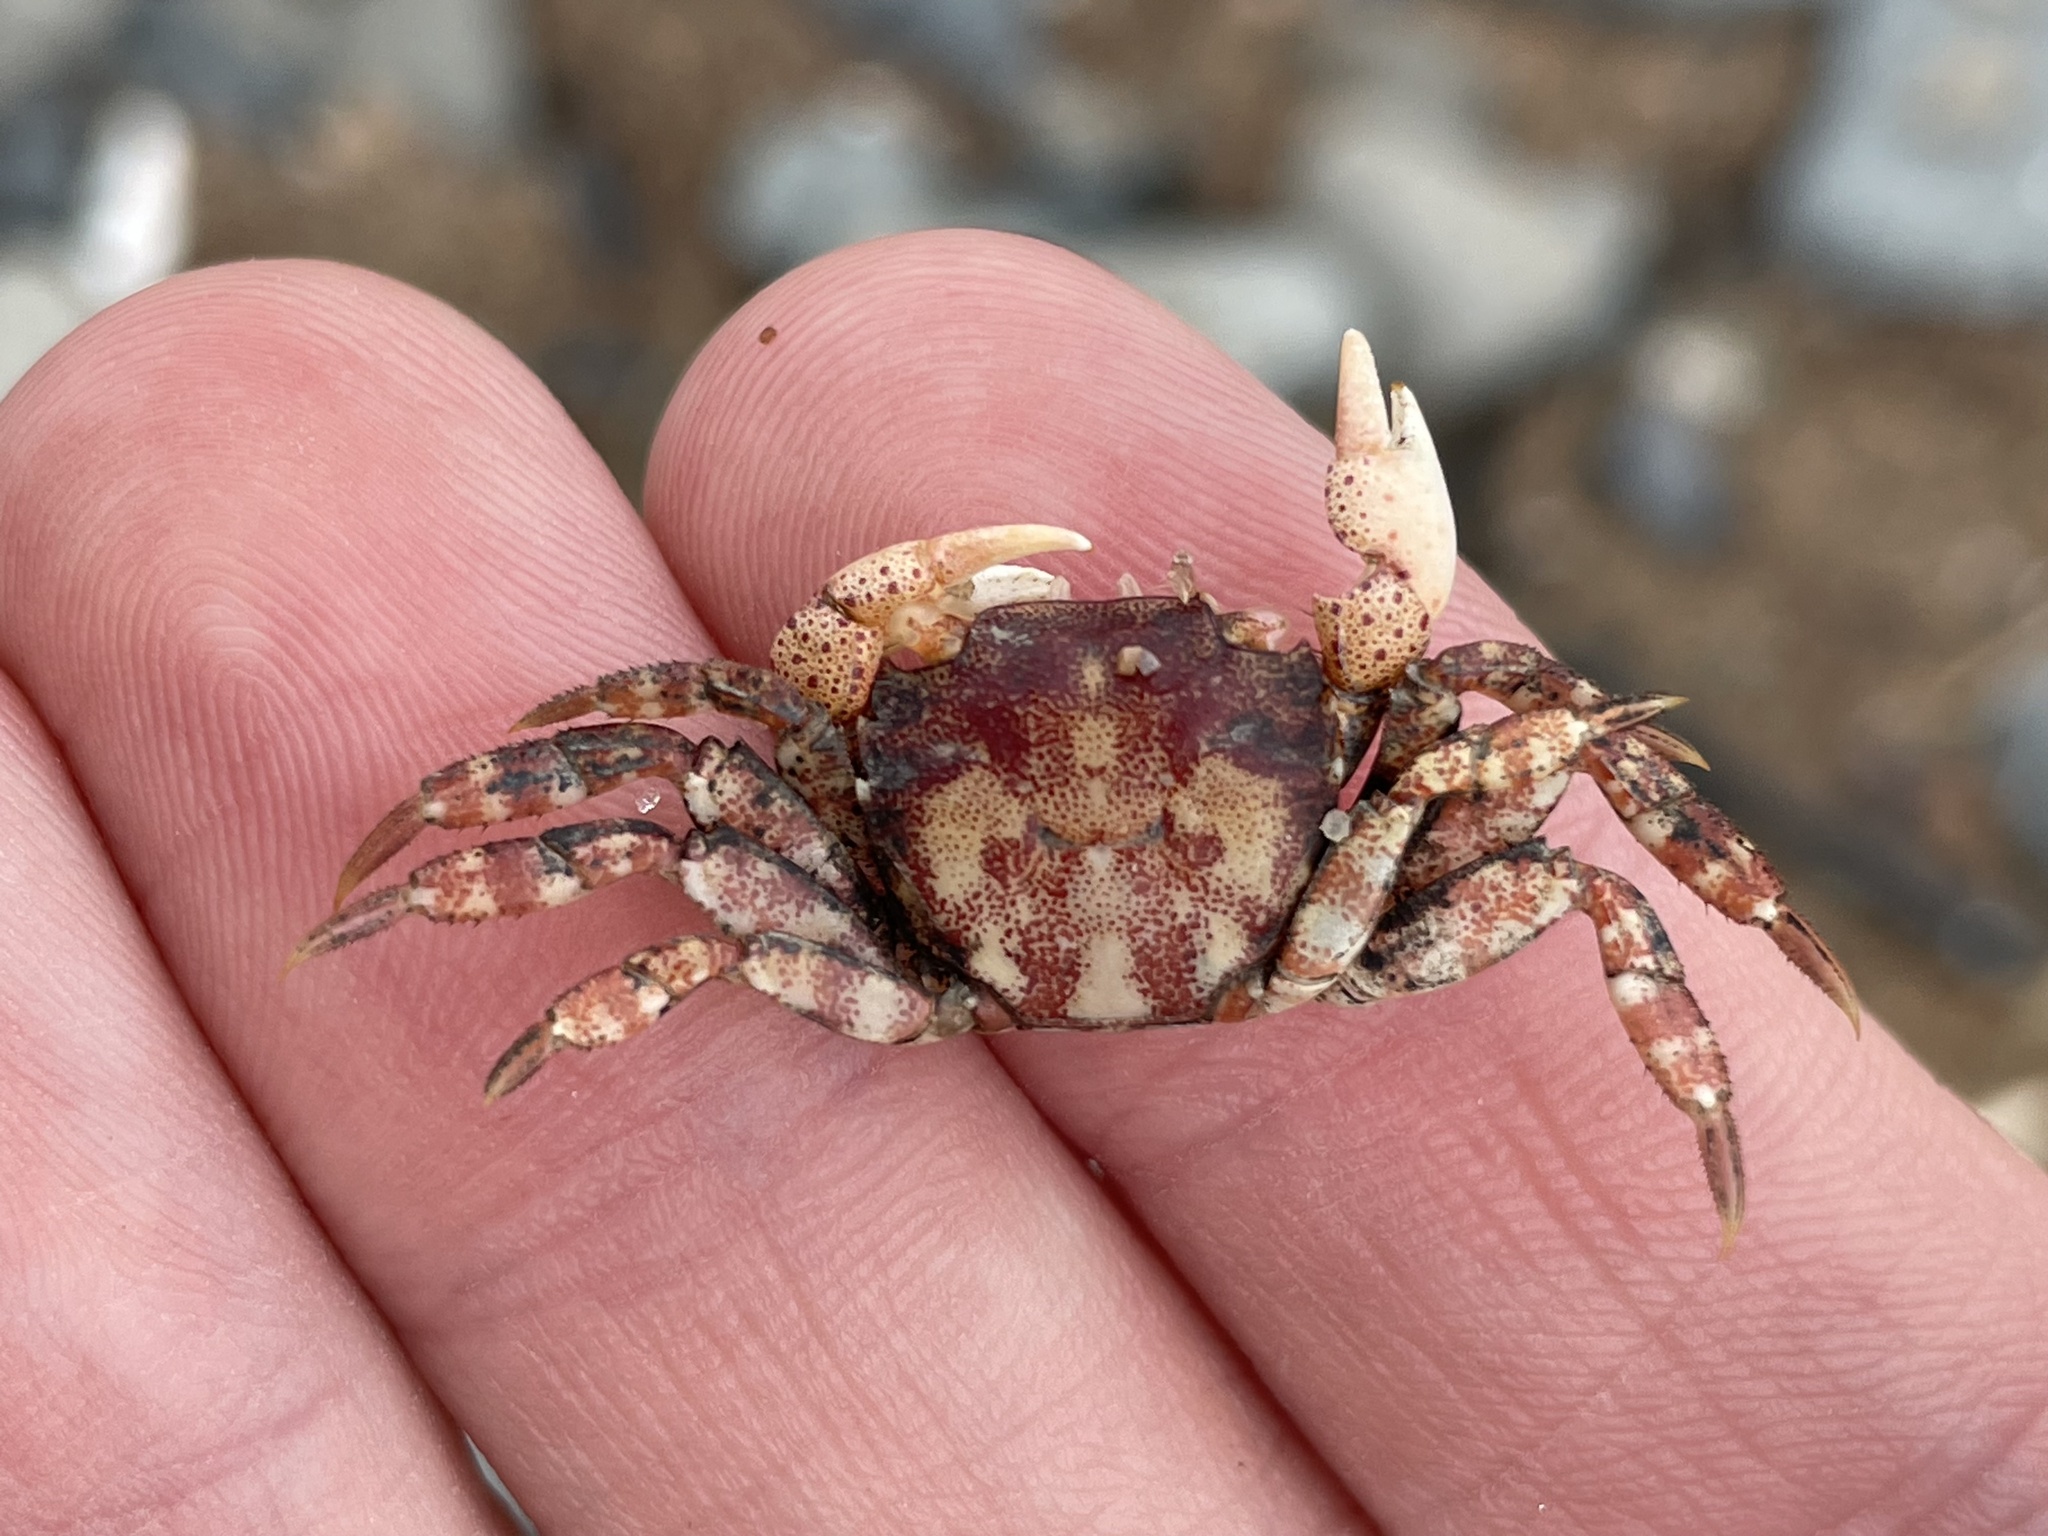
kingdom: Animalia
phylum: Arthropoda
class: Malacostraca
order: Decapoda
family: Varunidae
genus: Hemigrapsus
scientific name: Hemigrapsus sanguineus
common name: Asian shore crab
